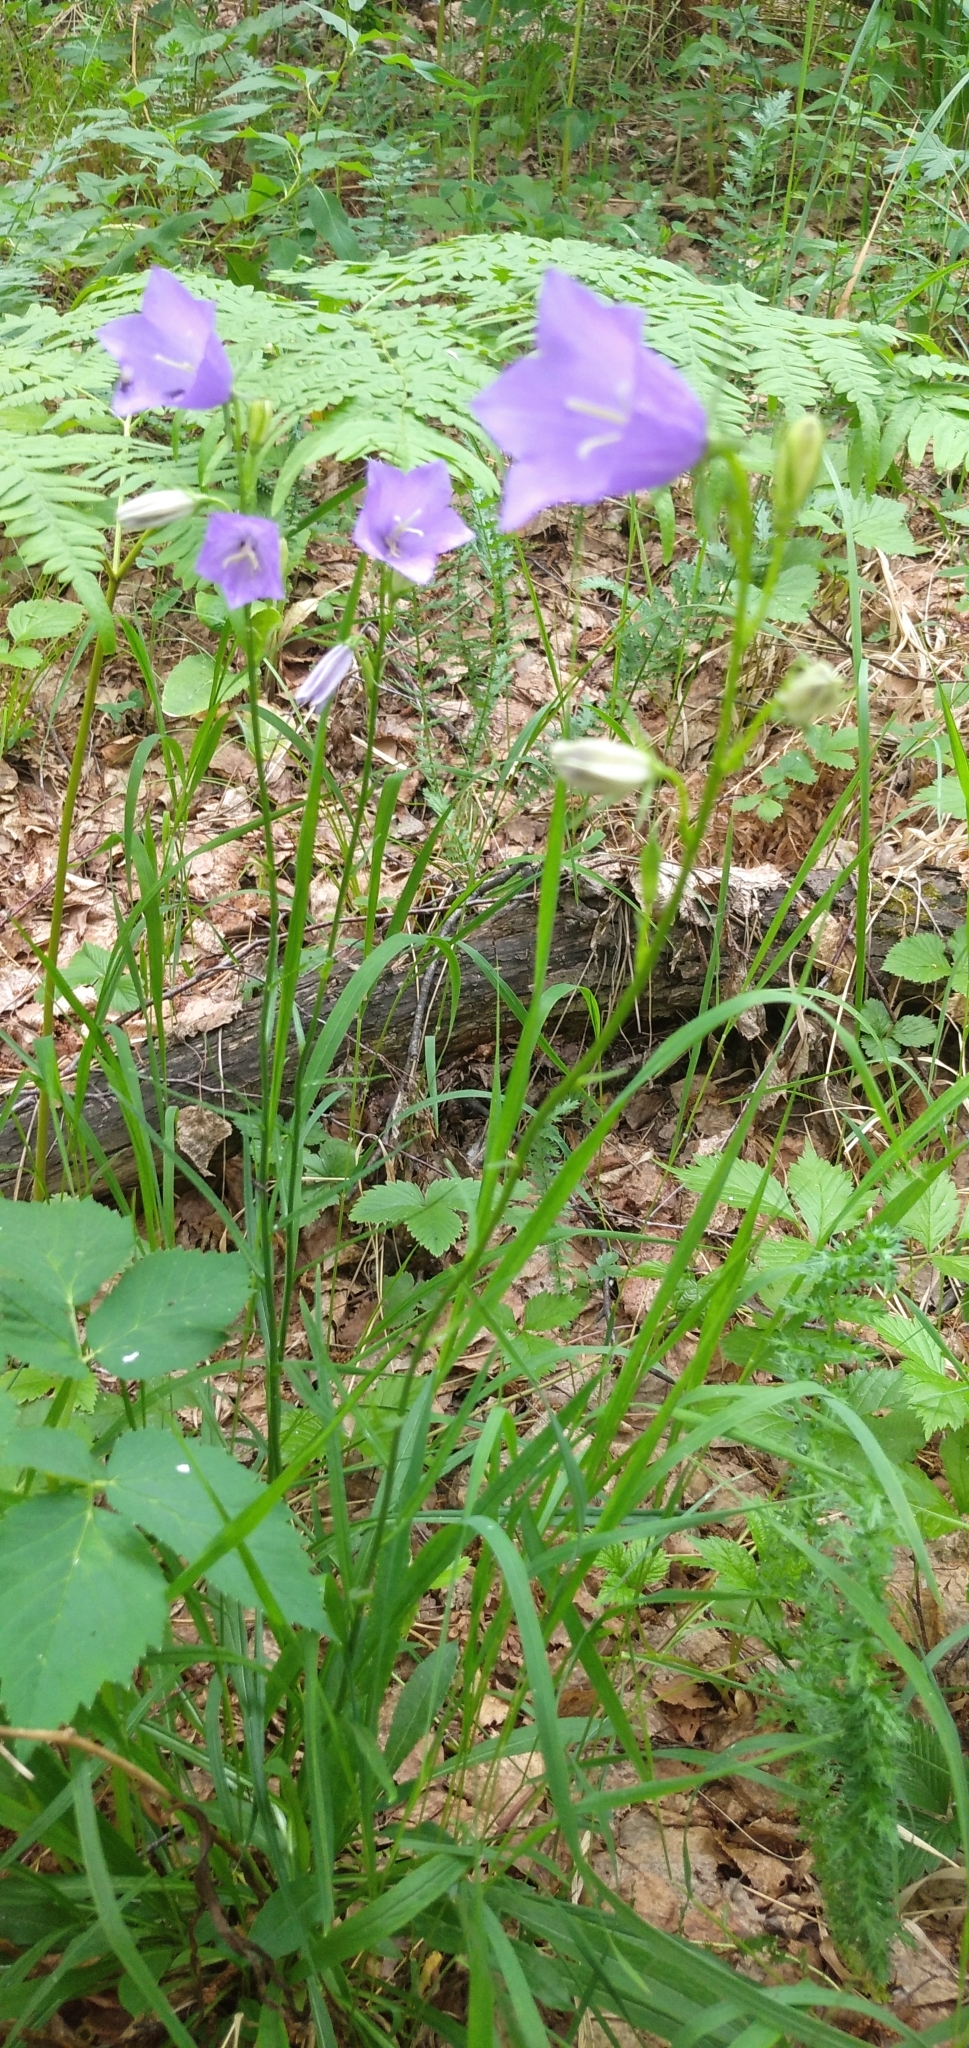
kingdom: Plantae
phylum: Tracheophyta
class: Magnoliopsida
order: Asterales
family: Campanulaceae
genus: Campanula
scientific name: Campanula persicifolia
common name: Peach-leaved bellflower
